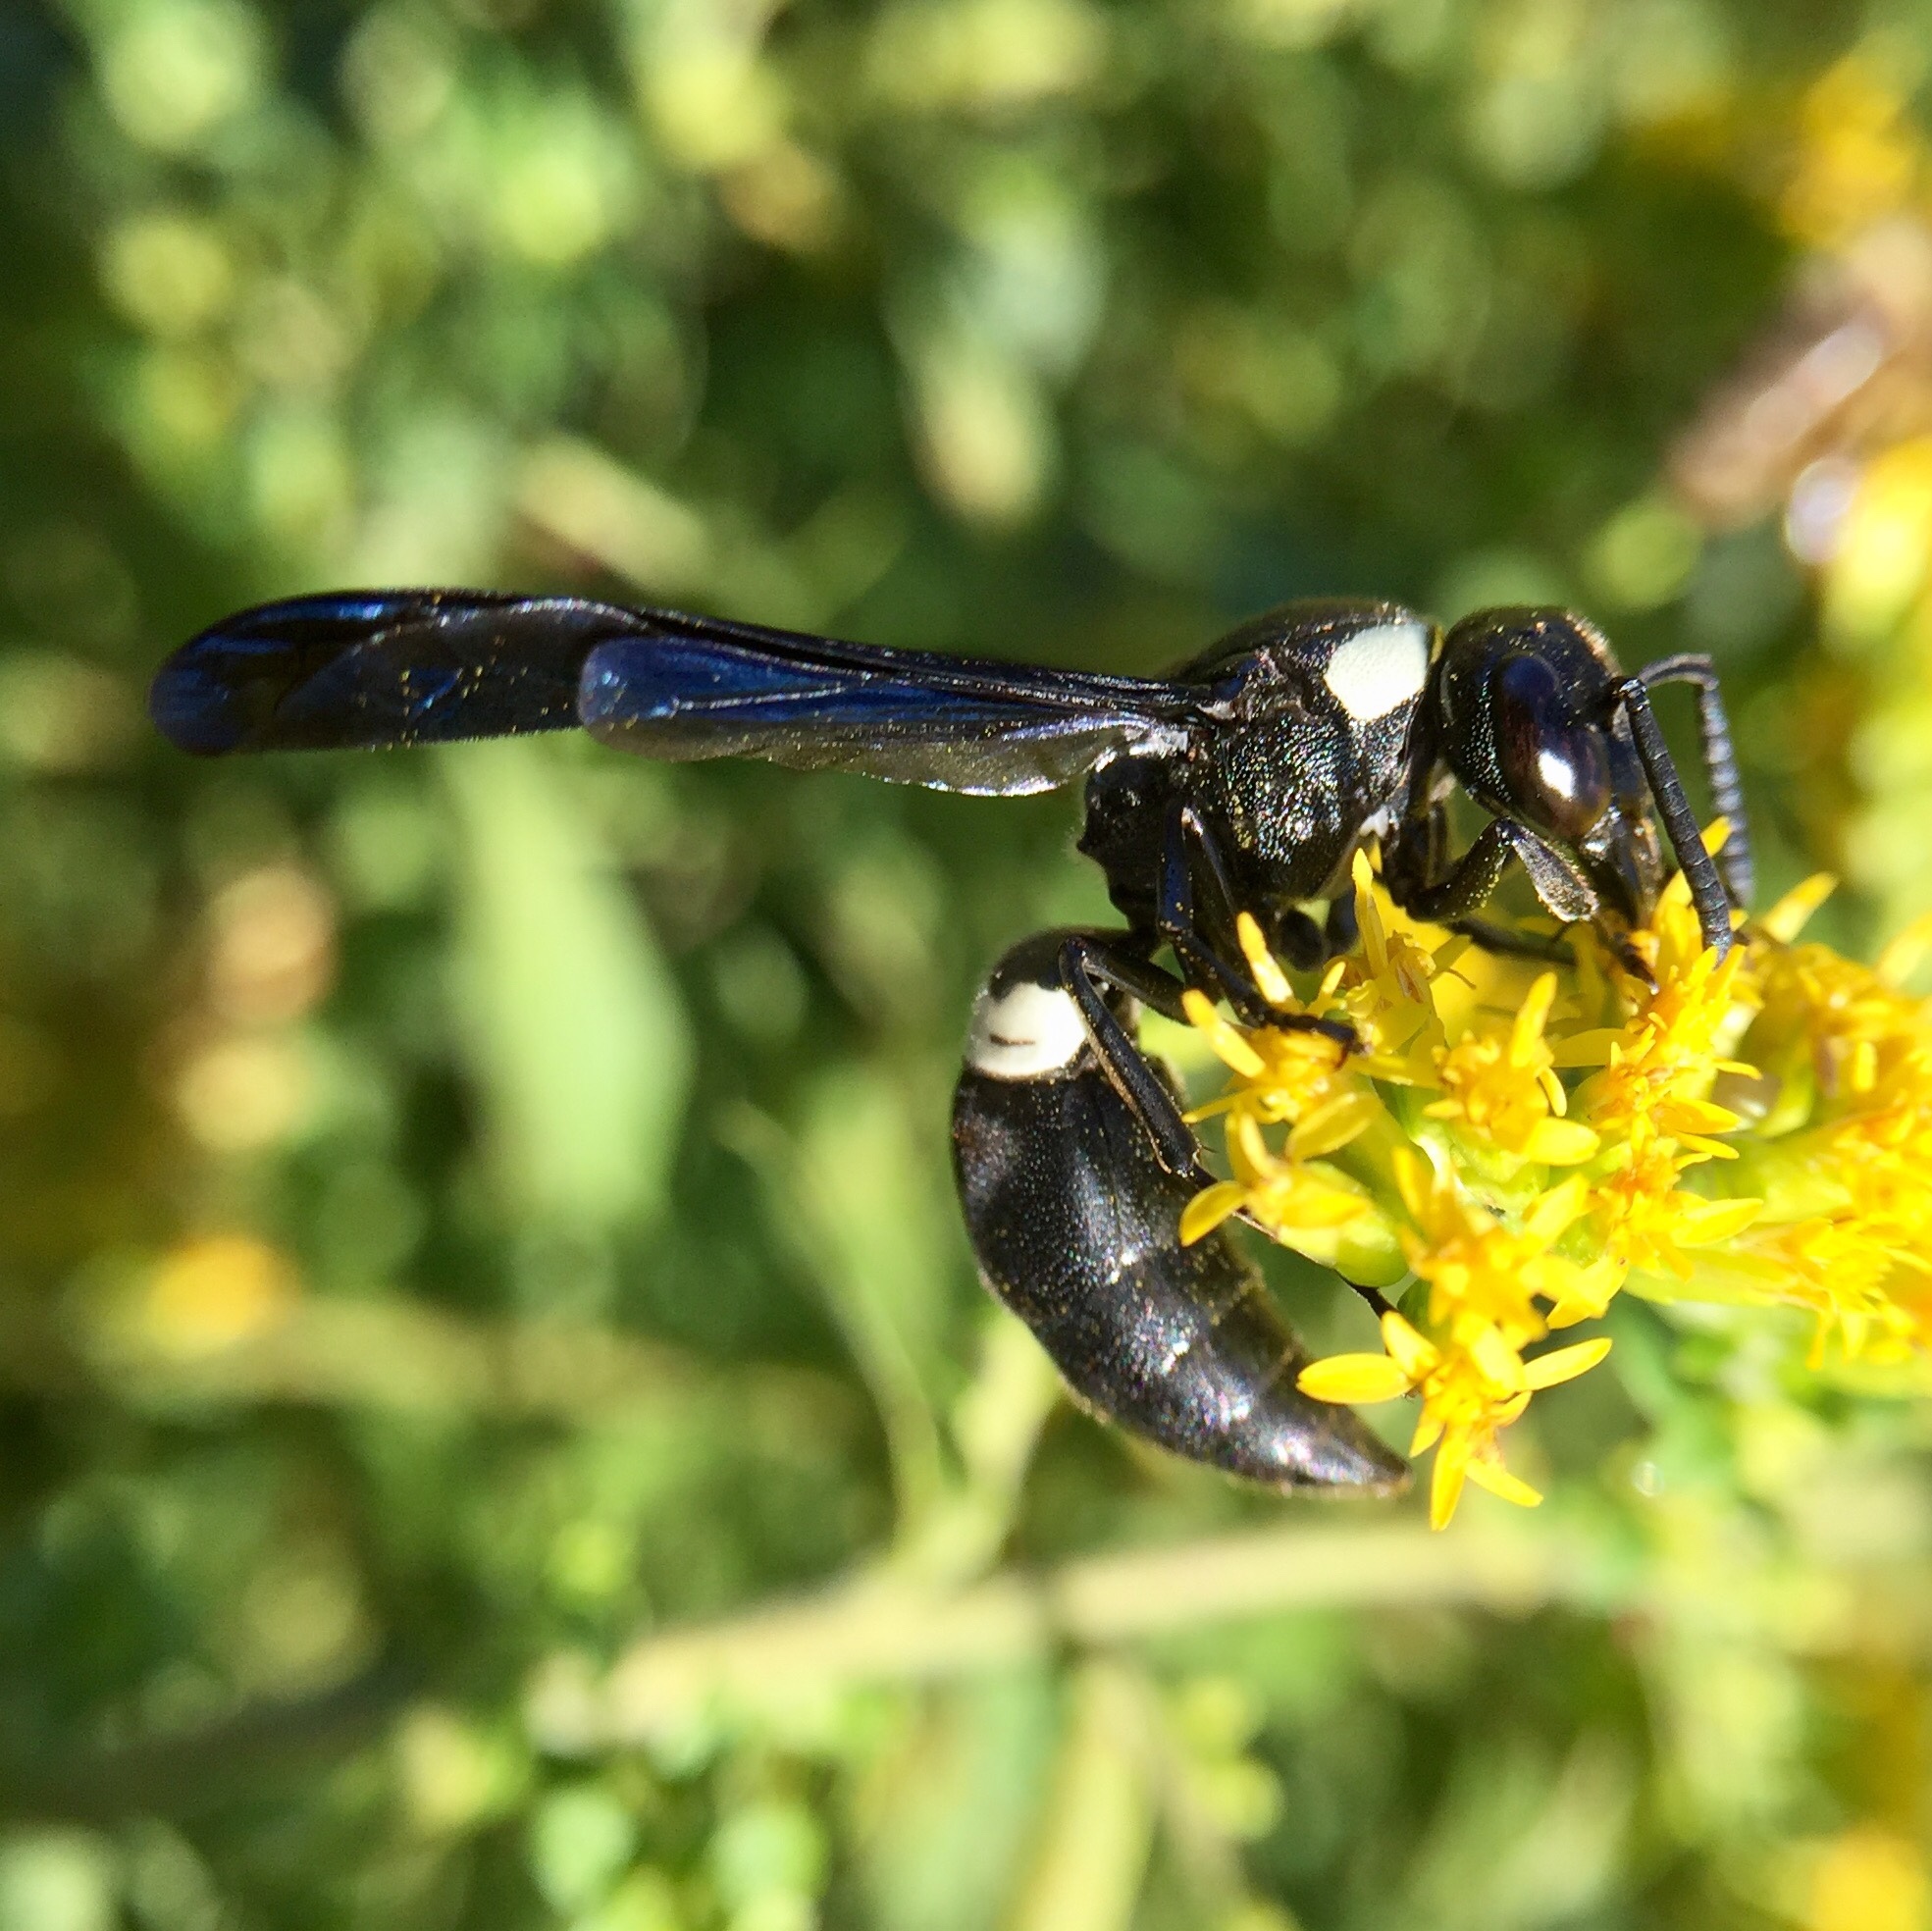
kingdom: Animalia
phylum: Arthropoda
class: Insecta
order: Hymenoptera
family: Eumenidae
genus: Monobia
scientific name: Monobia quadridens
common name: Four-toothed mason wasp
